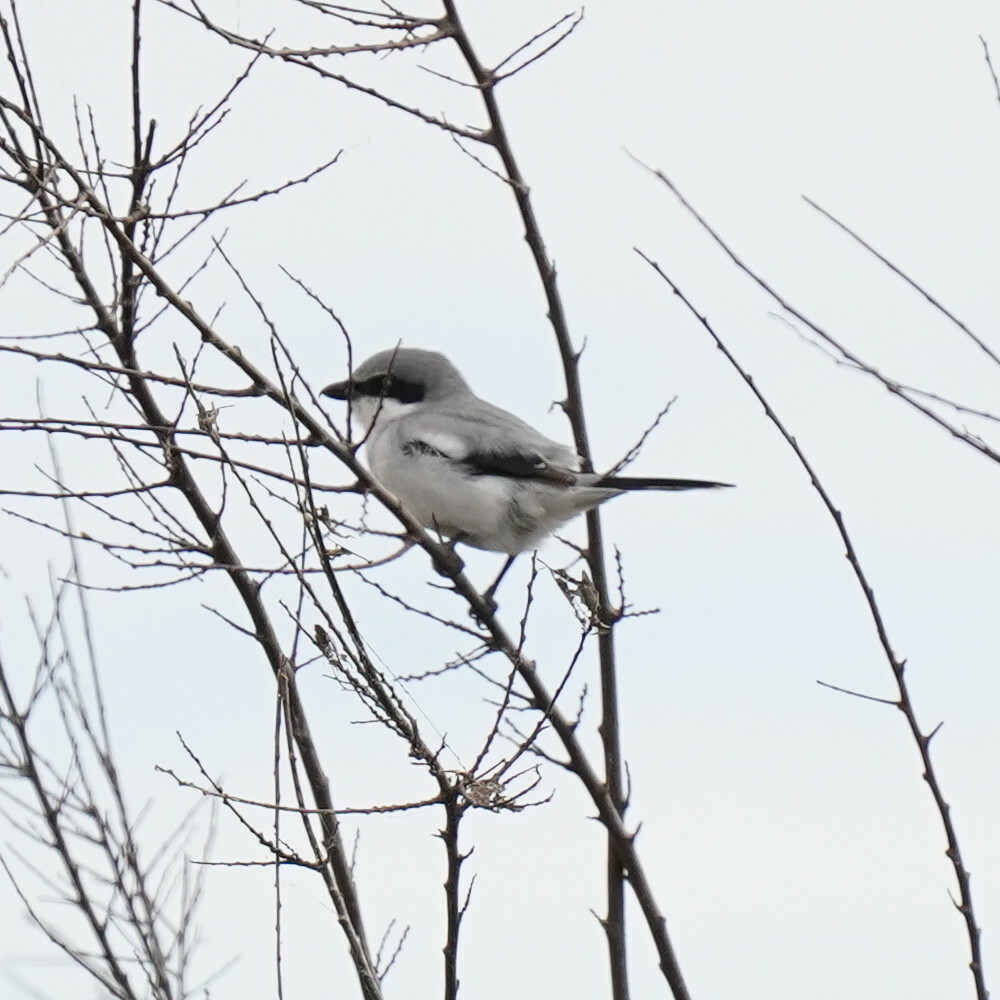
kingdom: Animalia
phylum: Chordata
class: Aves
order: Passeriformes
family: Laniidae
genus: Lanius
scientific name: Lanius ludovicianus
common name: Loggerhead shrike
